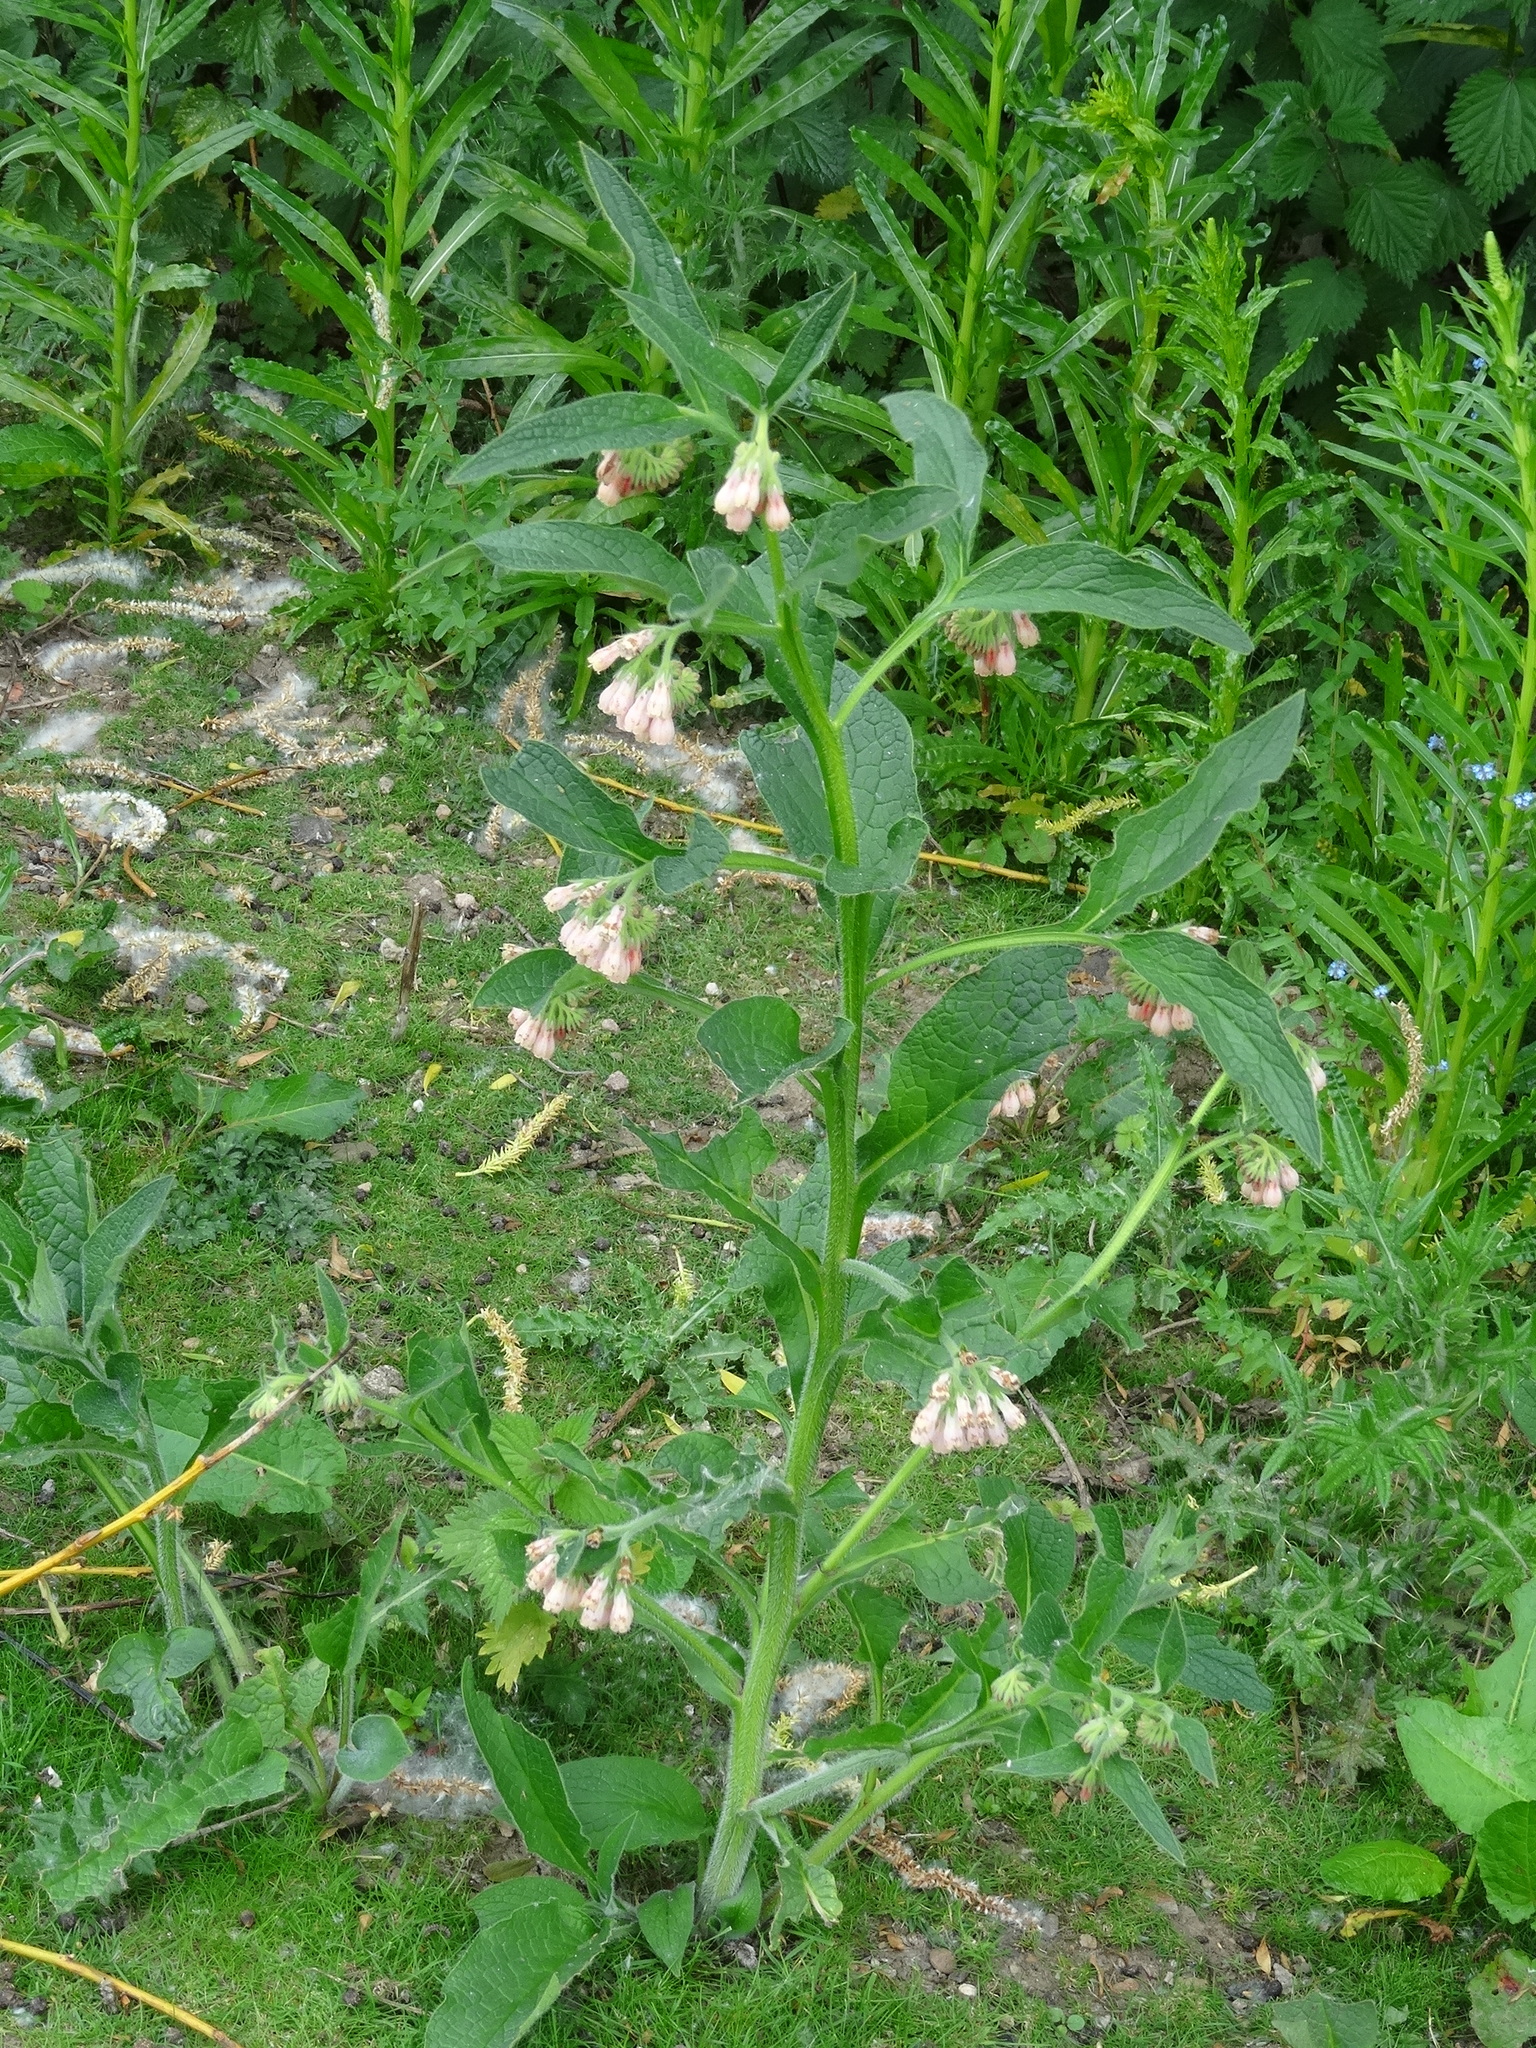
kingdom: Plantae
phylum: Tracheophyta
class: Magnoliopsida
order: Boraginales
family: Boraginaceae
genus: Symphytum
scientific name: Symphytum officinale
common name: Common comfrey
